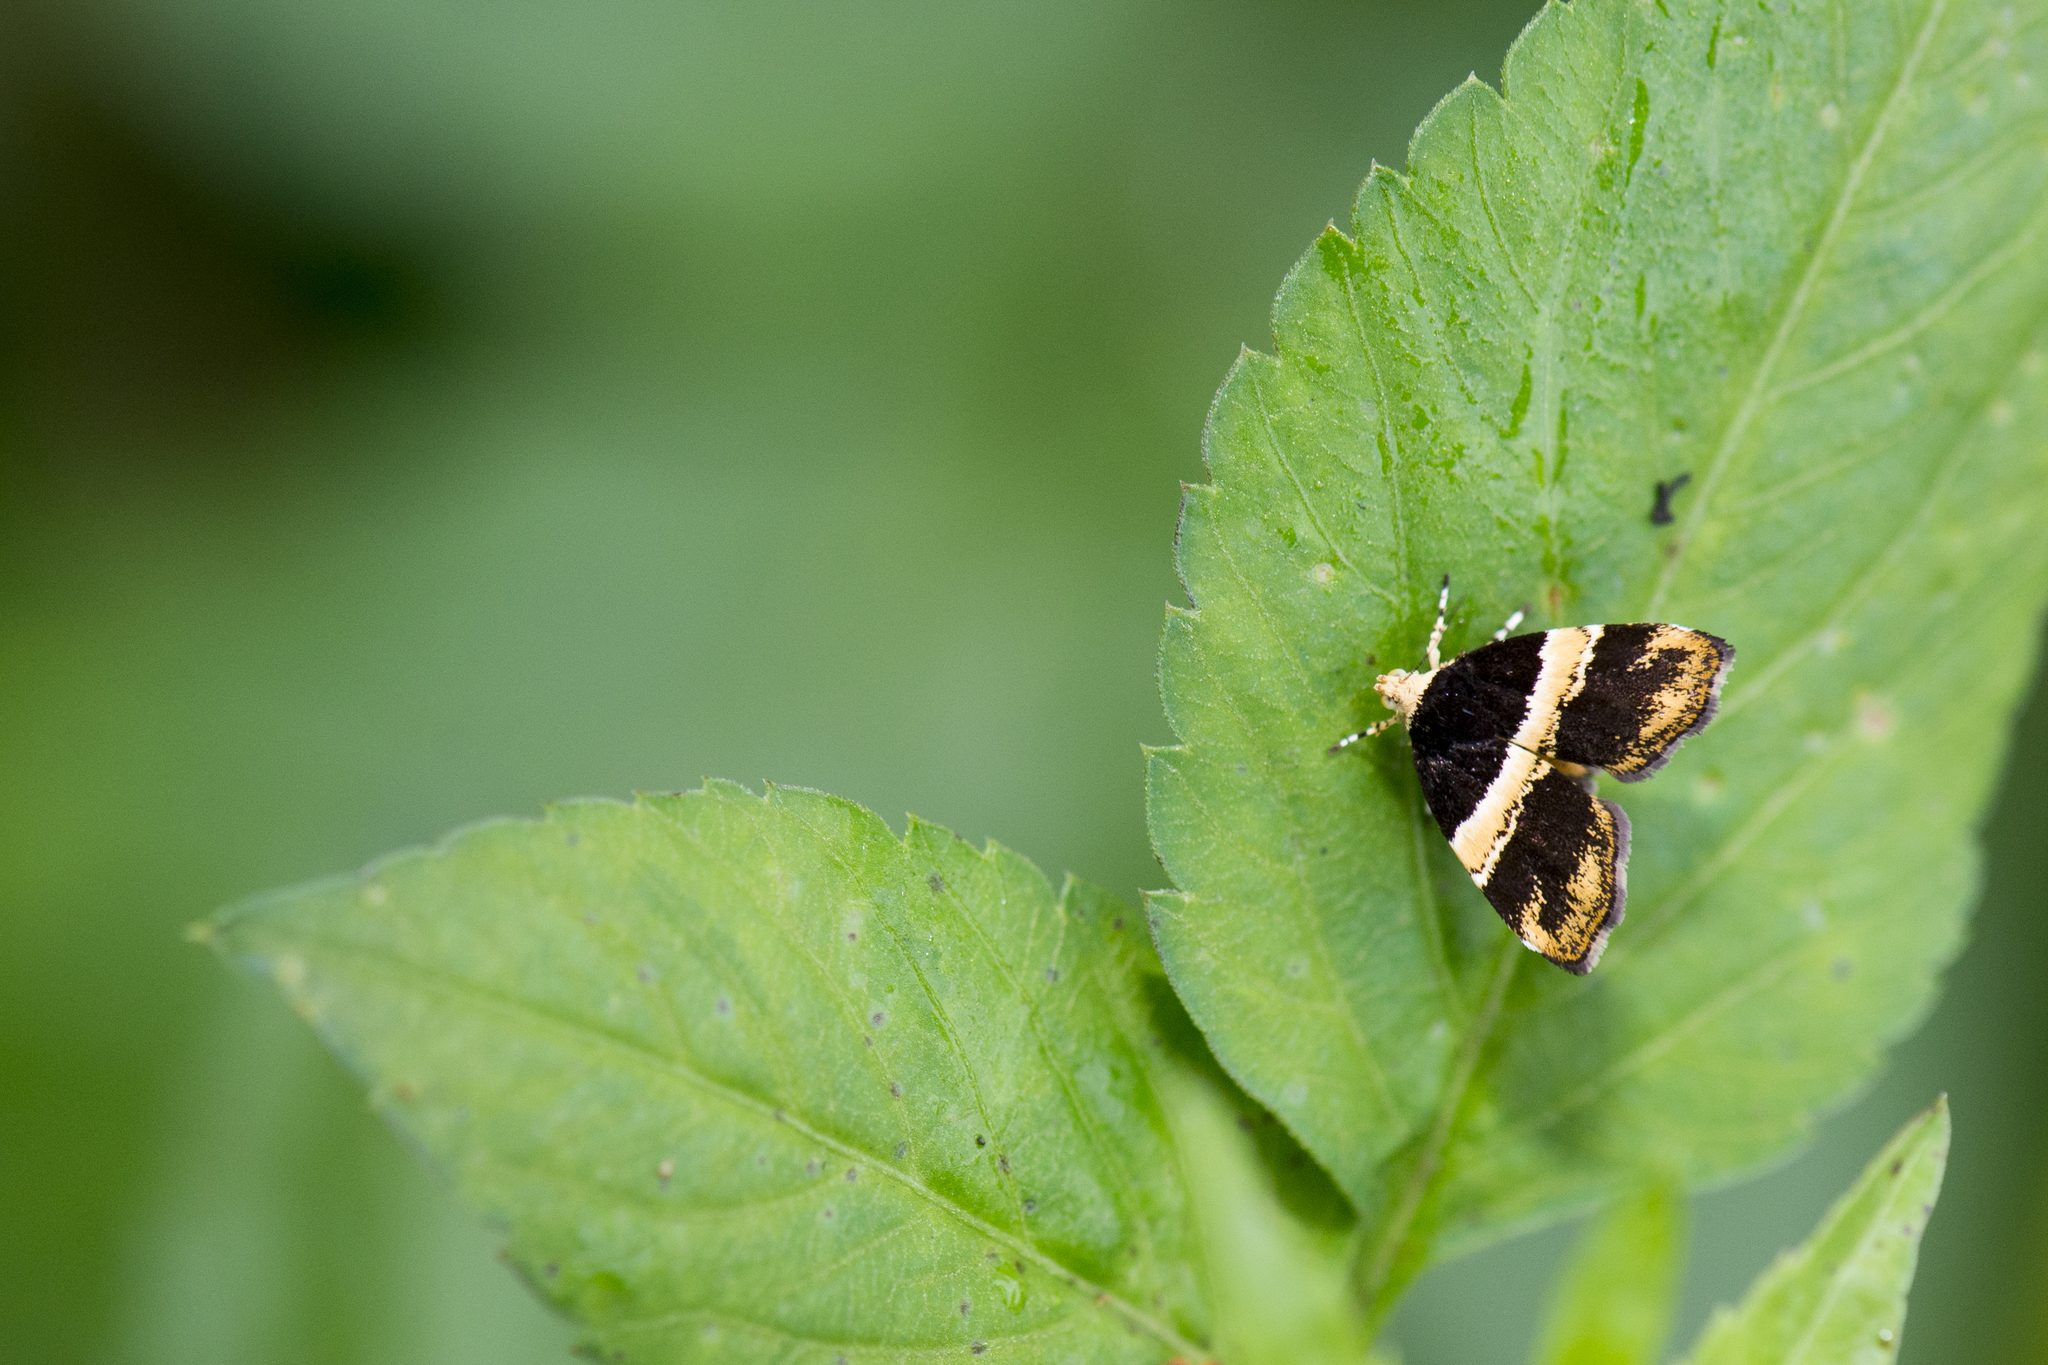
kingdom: Animalia
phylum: Arthropoda
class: Insecta
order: Lepidoptera
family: Choreutidae
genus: Choreutis
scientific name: Choreutis basalis
